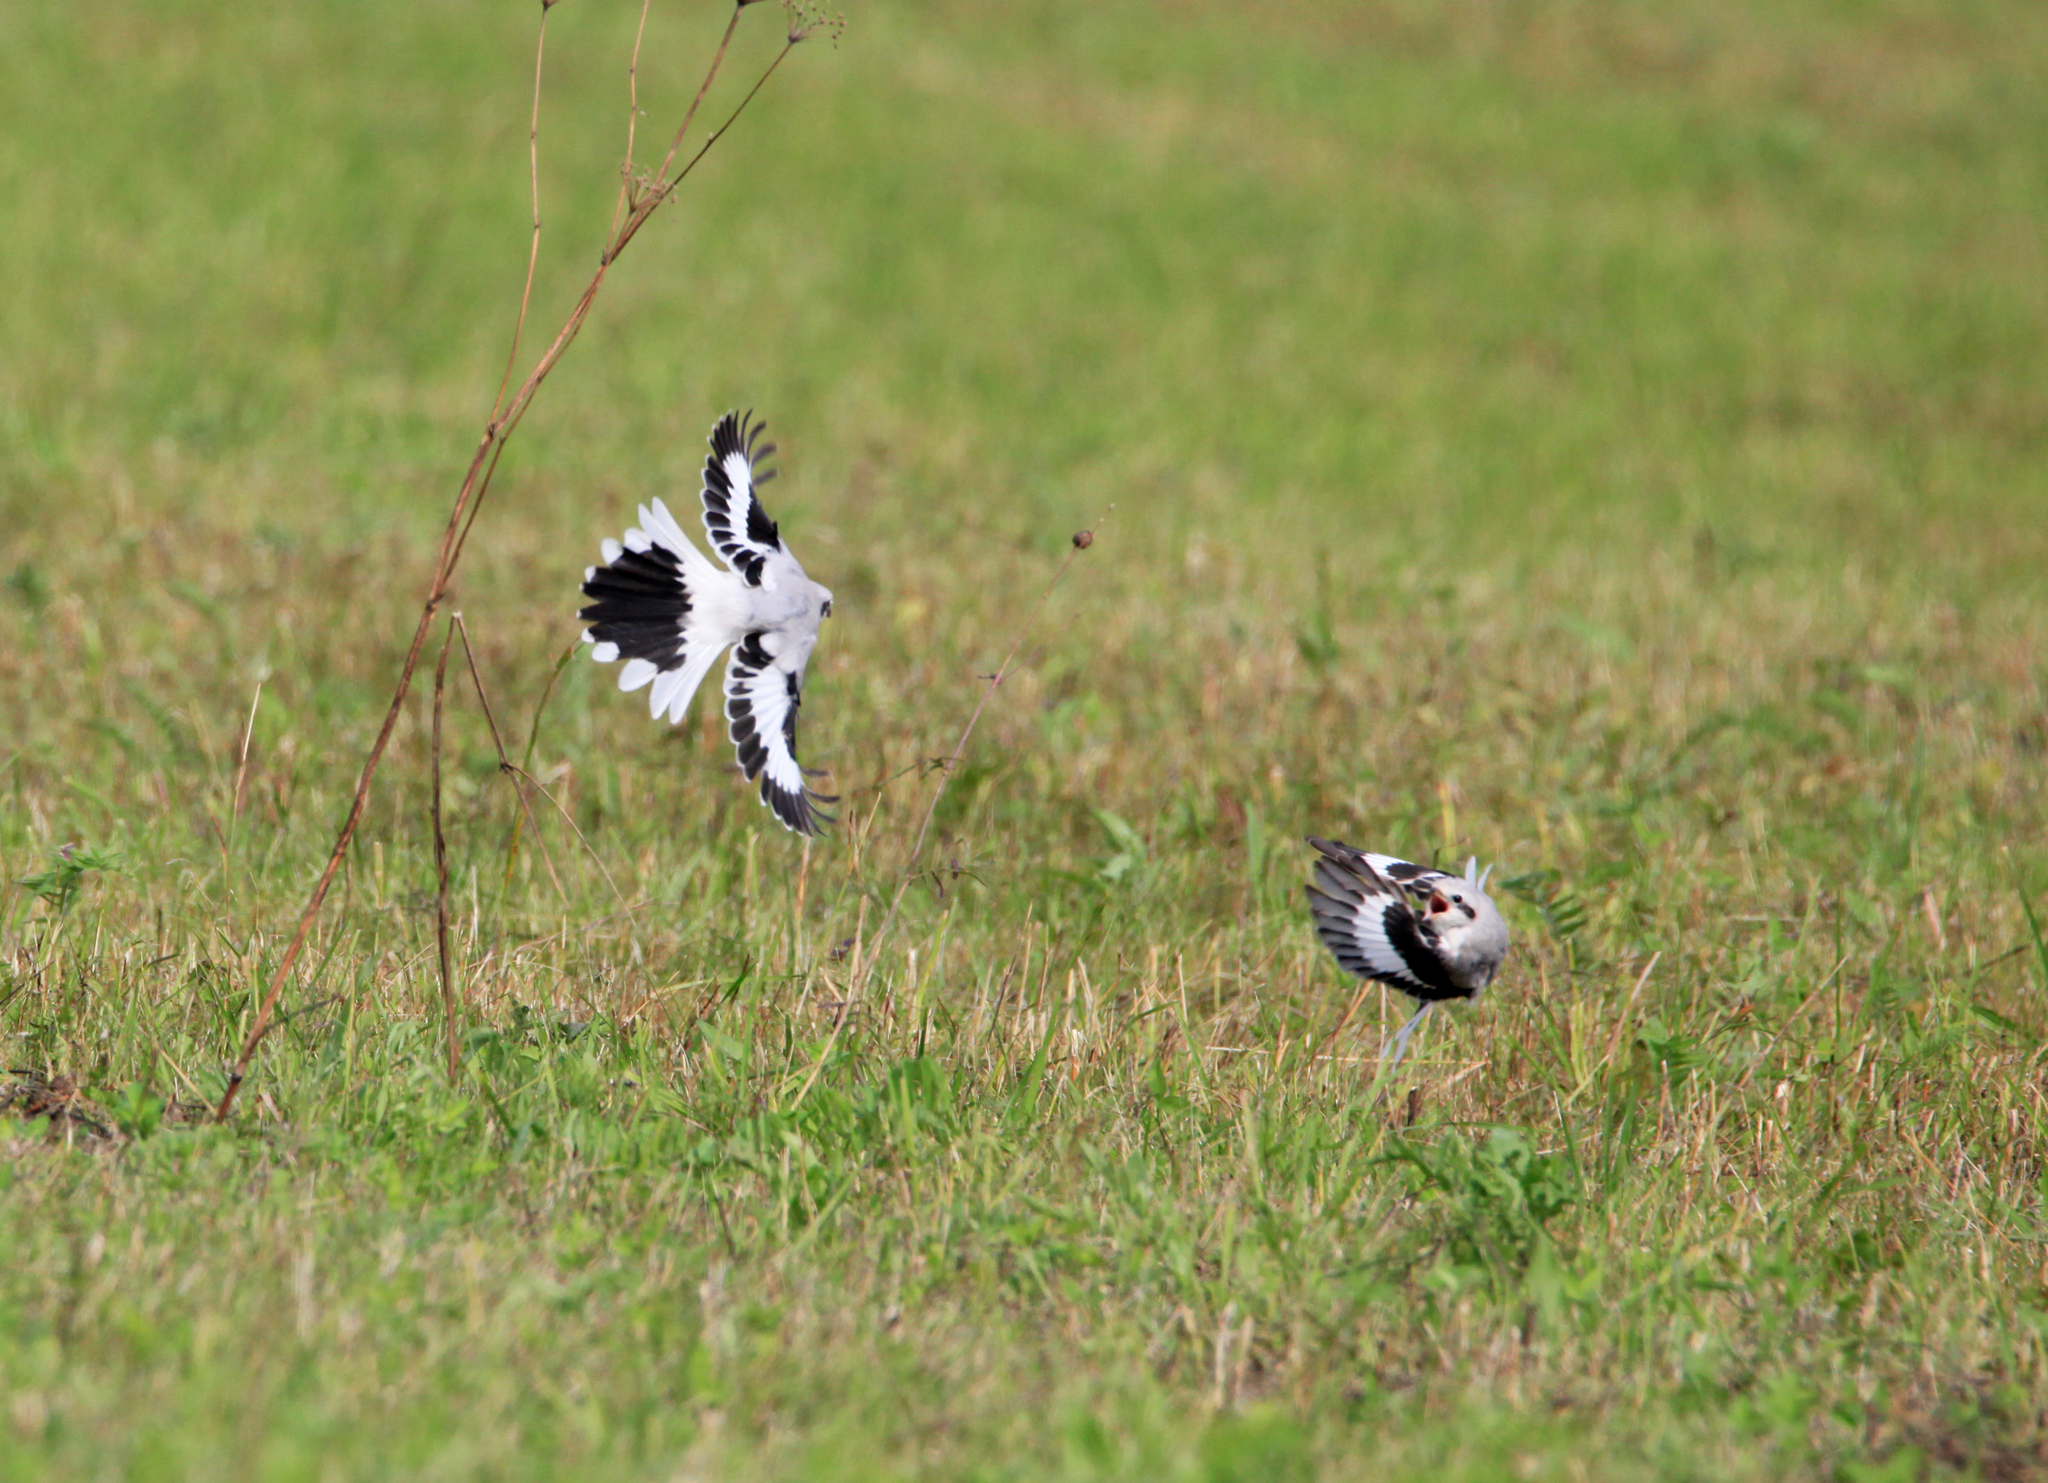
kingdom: Animalia
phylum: Chordata
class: Aves
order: Passeriformes
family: Laniidae
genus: Lanius
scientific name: Lanius excubitor
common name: Great grey shrike
